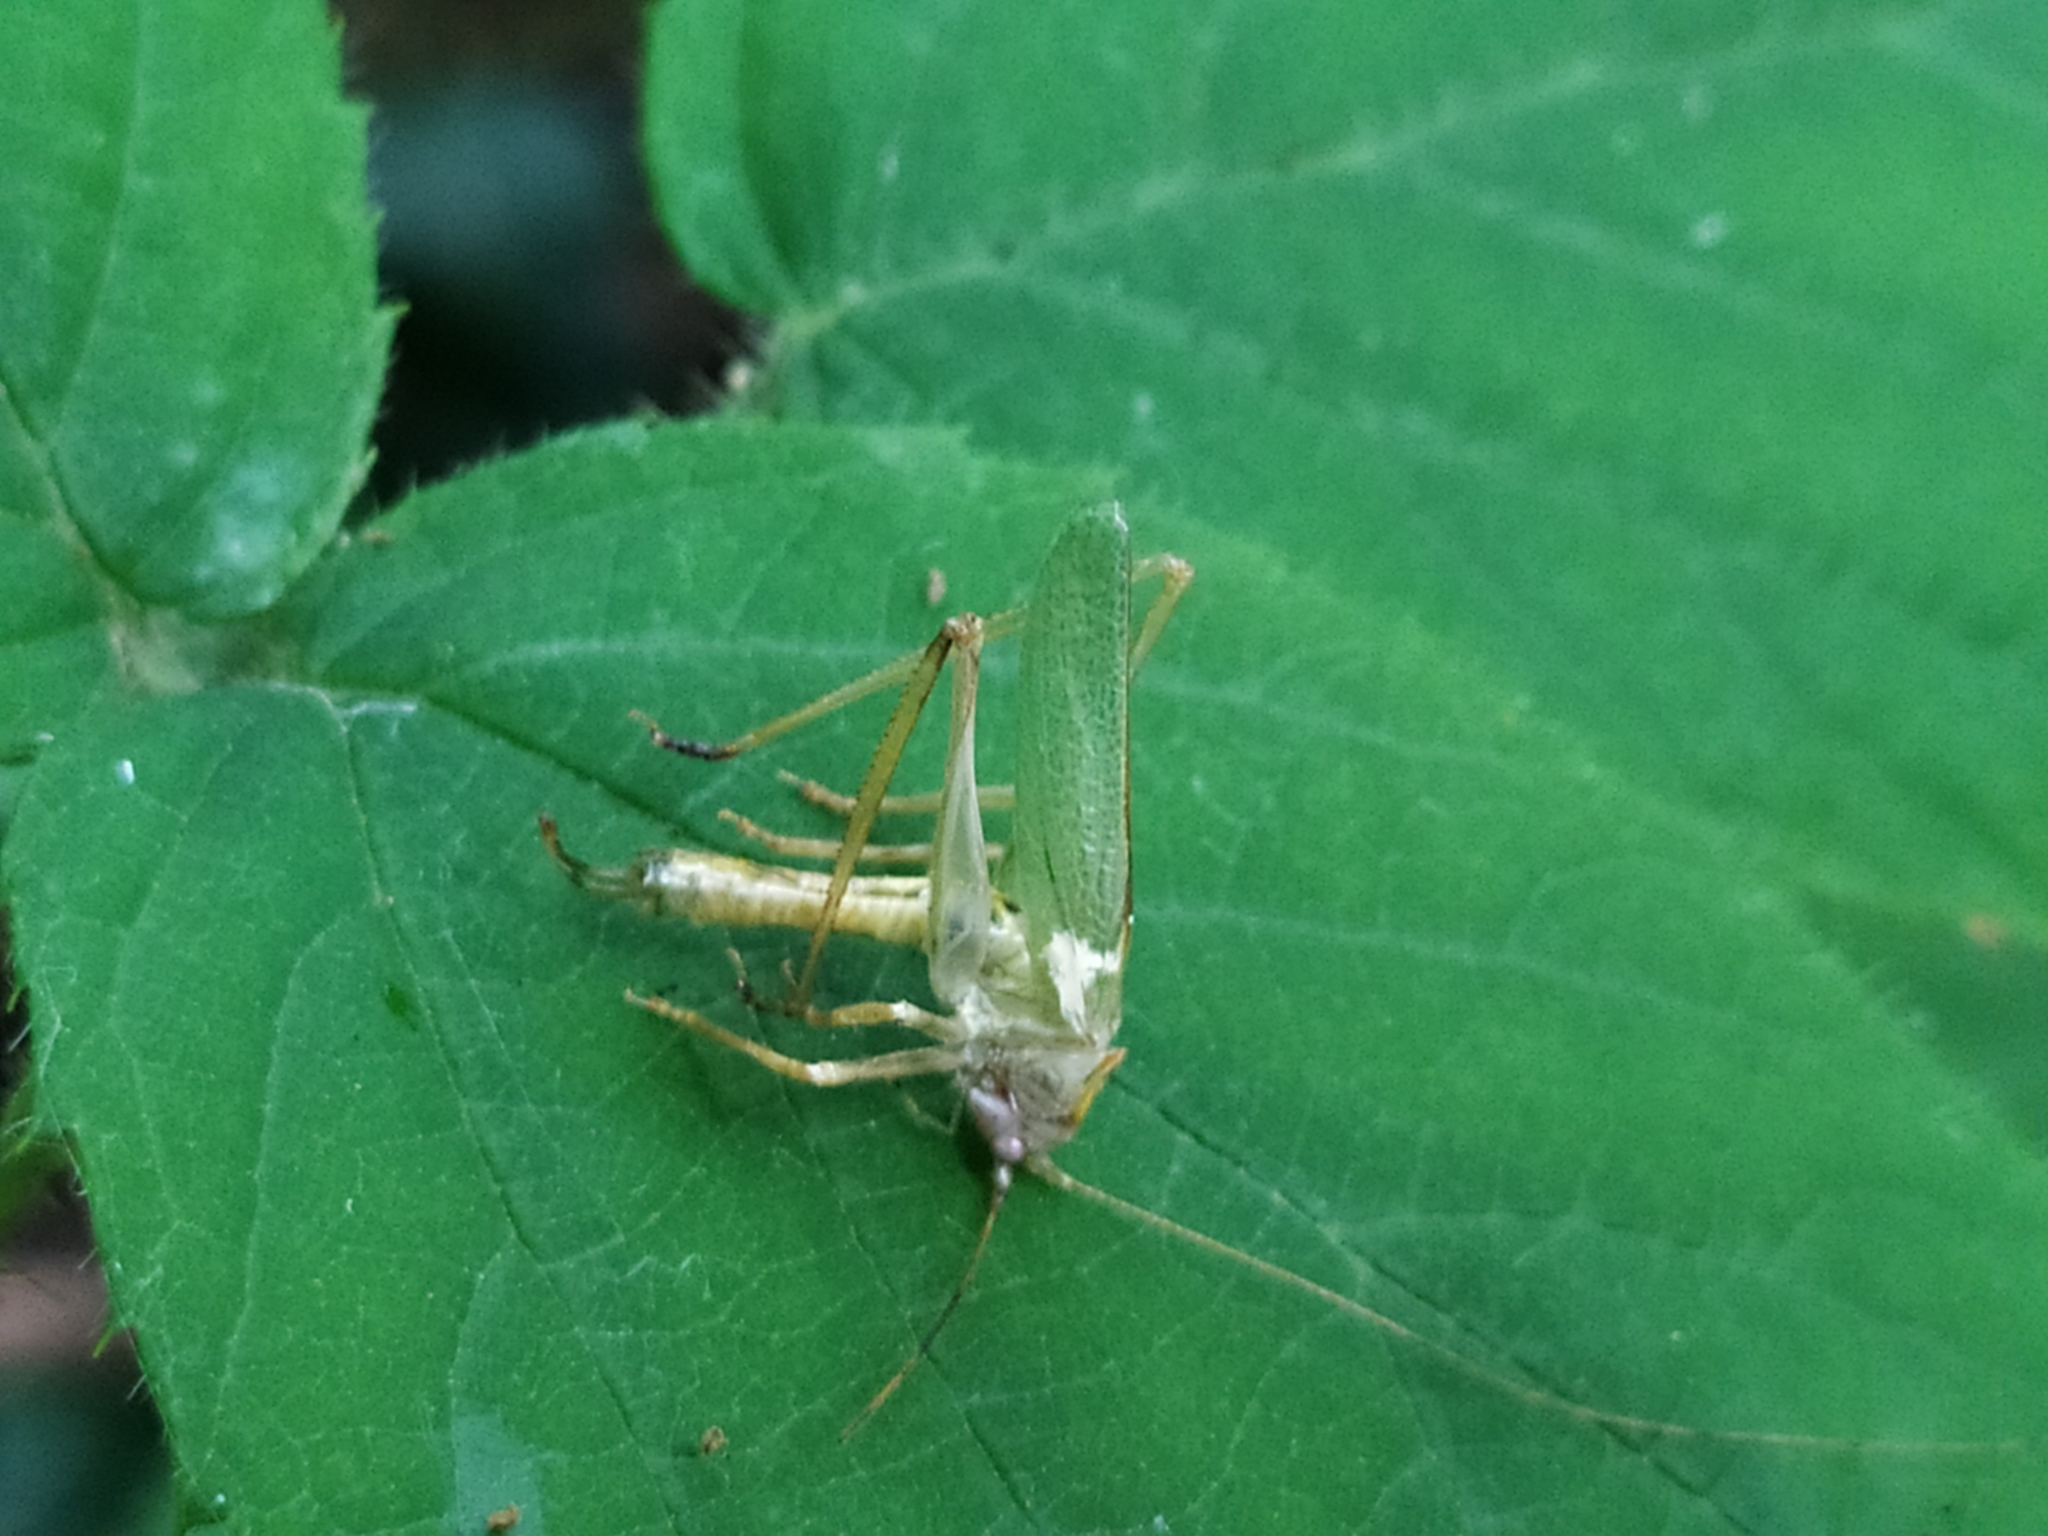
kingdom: Animalia
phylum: Arthropoda
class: Insecta
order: Orthoptera
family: Tettigoniidae
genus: Meconema
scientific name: Meconema thalassinum
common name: Oak bush-cricket
